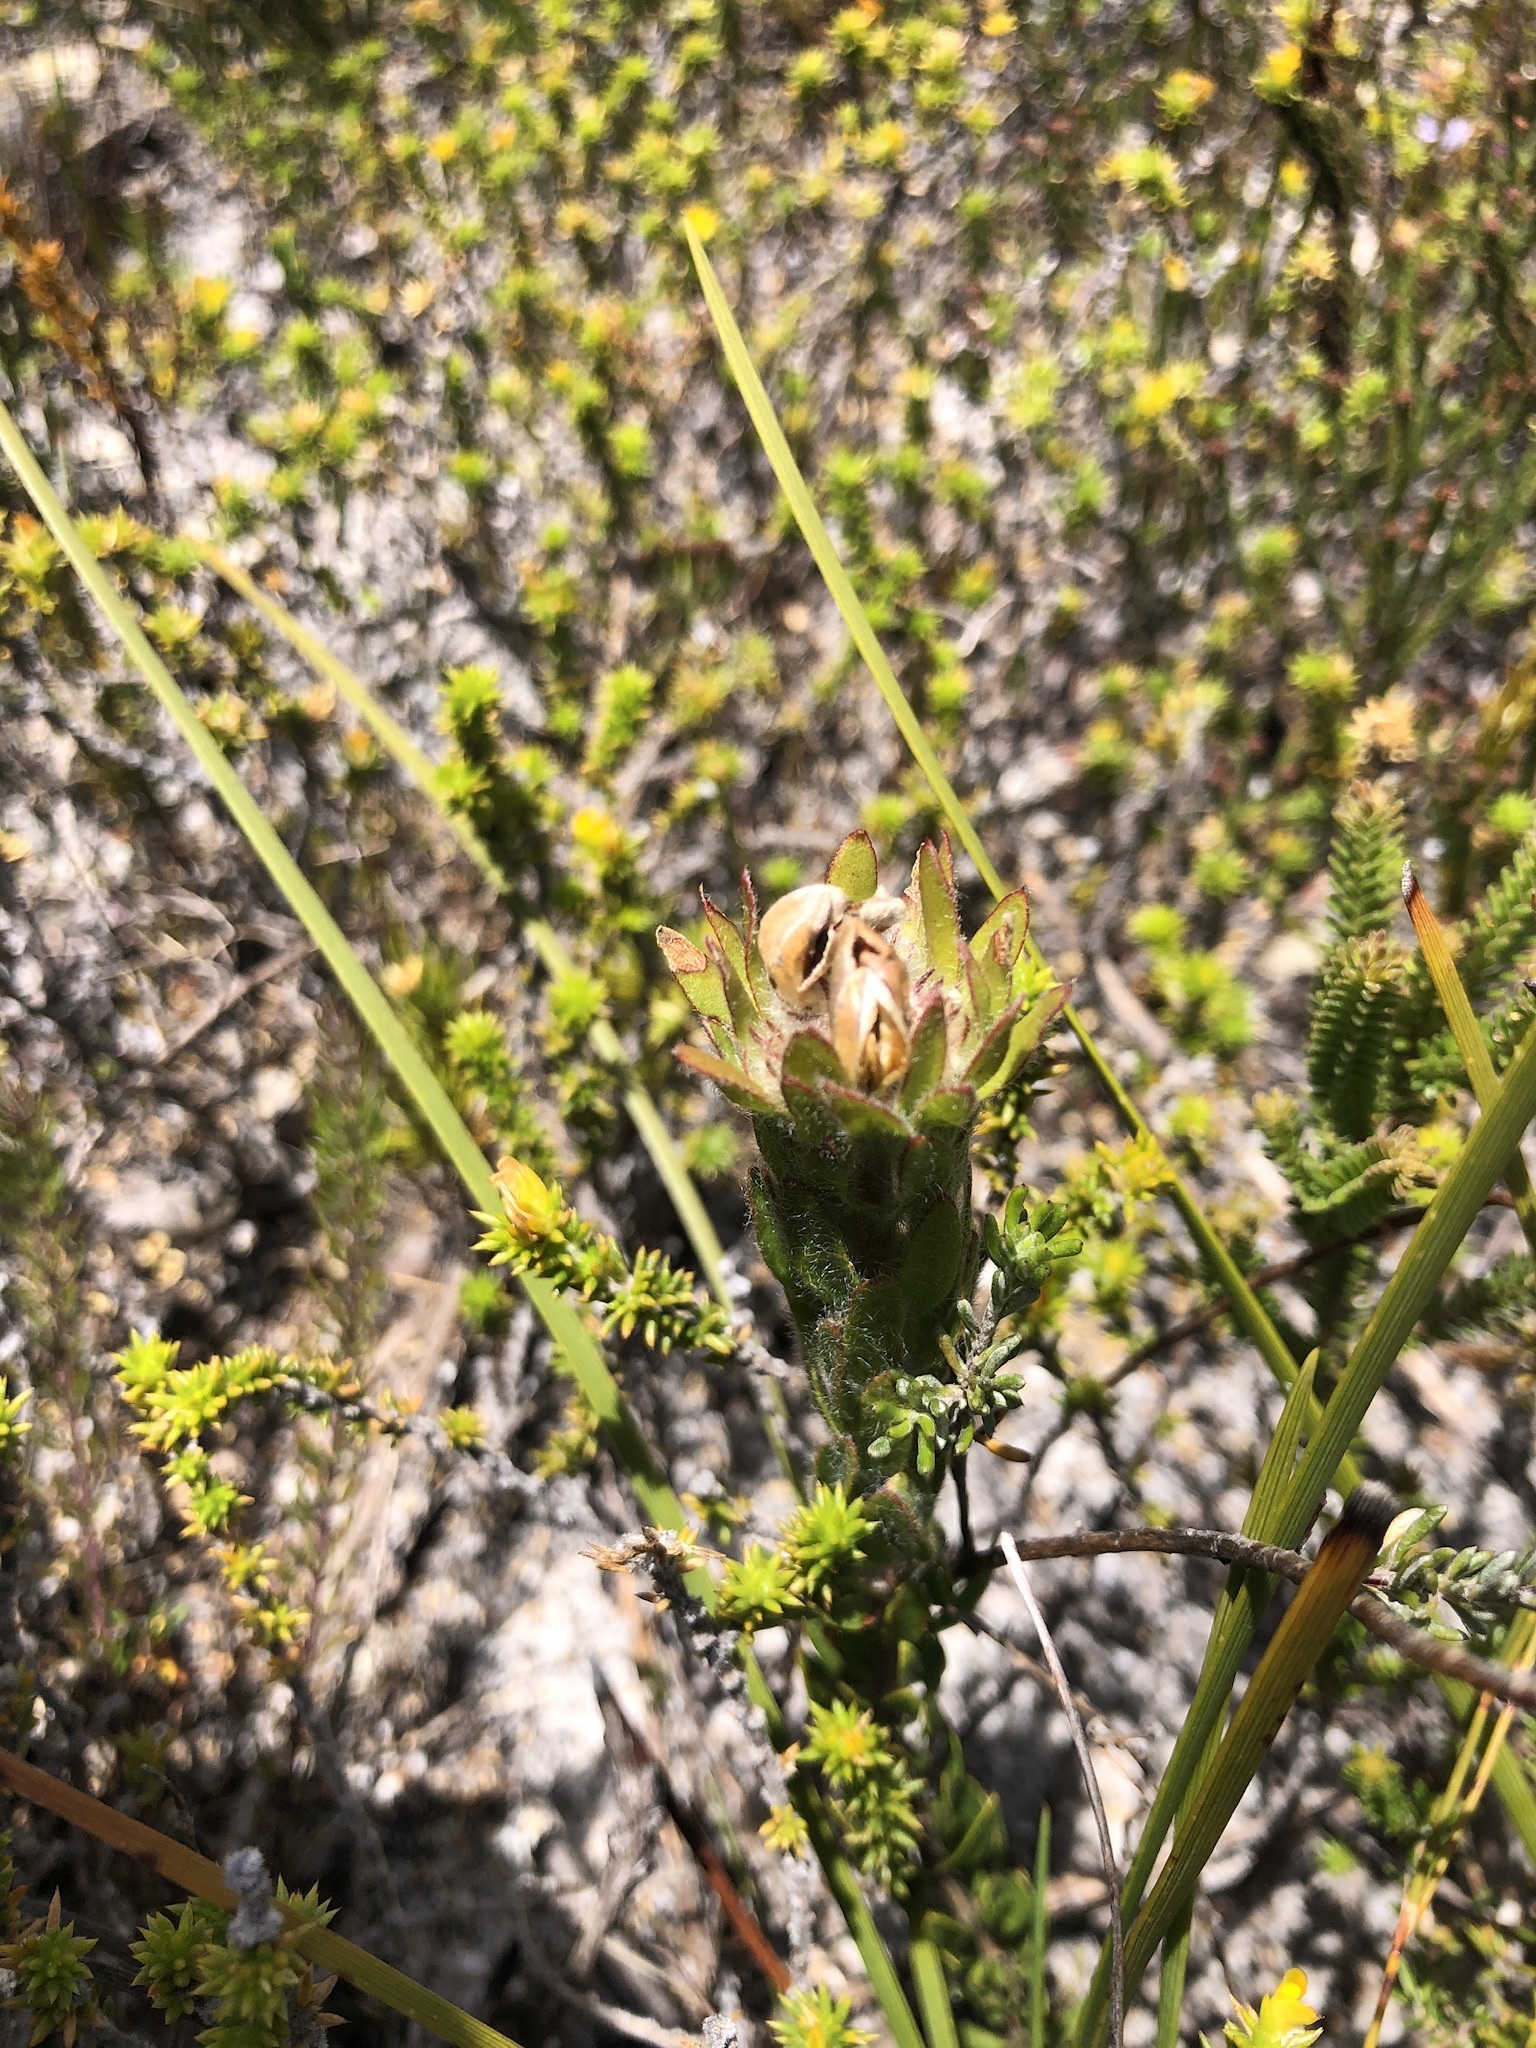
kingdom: Plantae
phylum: Tracheophyta
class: Magnoliopsida
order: Fabales
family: Fabaceae
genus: Aspalathus
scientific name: Aspalathus aspalathoides
